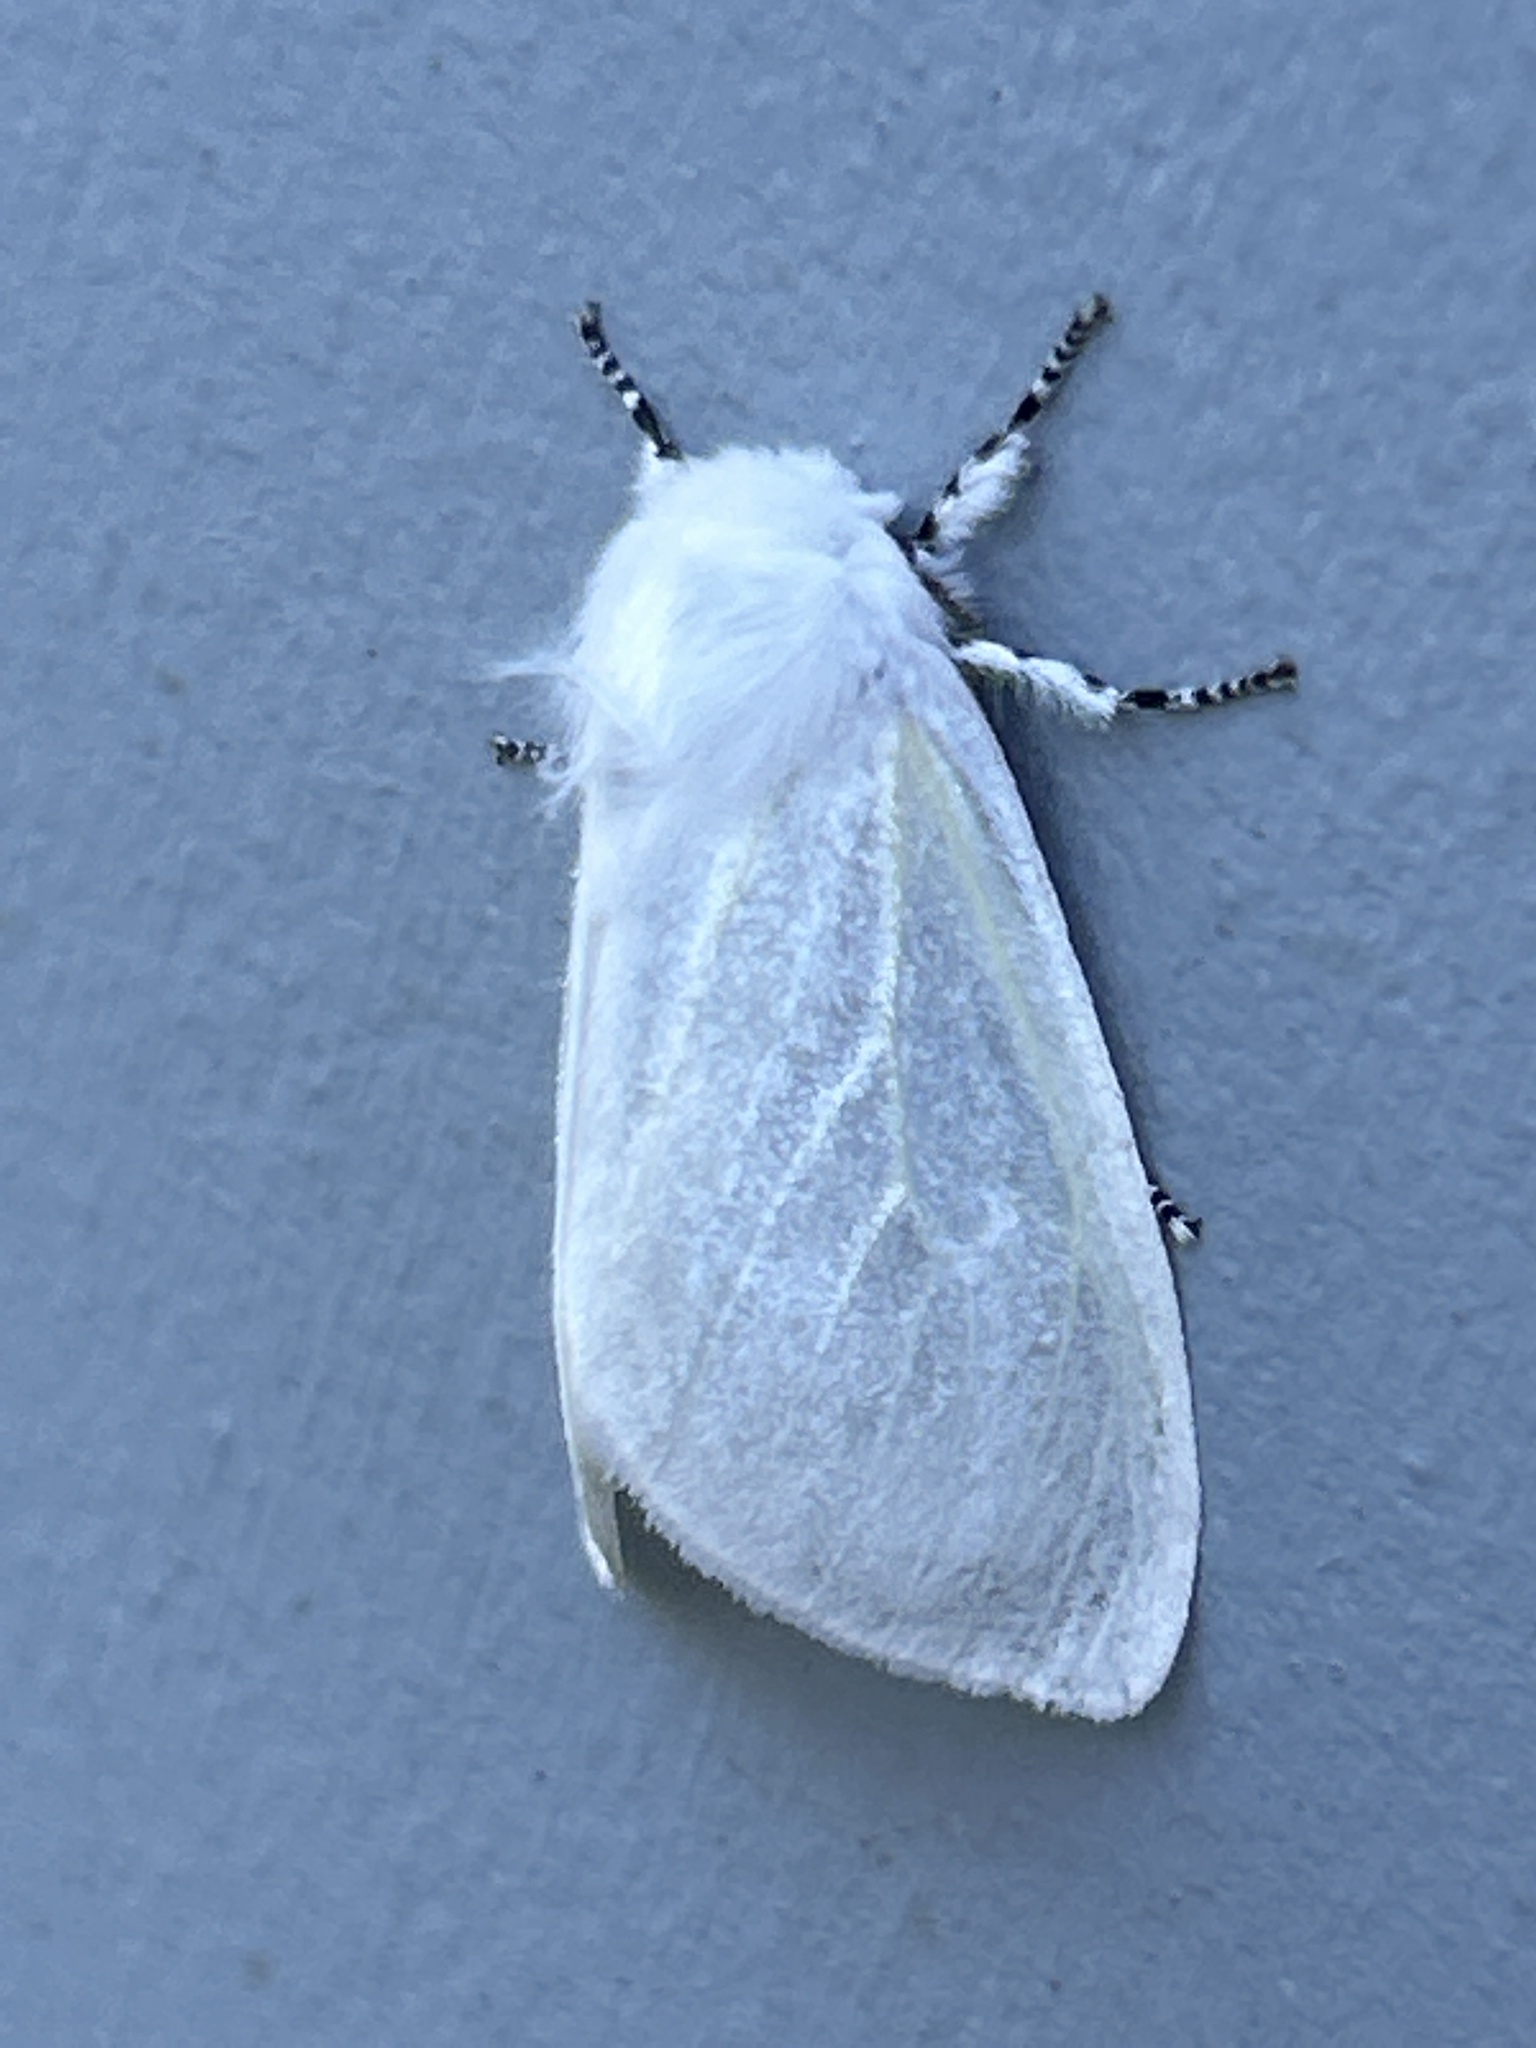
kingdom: Animalia
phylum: Arthropoda
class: Insecta
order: Lepidoptera
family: Erebidae
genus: Leucoma
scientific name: Leucoma salicis
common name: White satin moth
